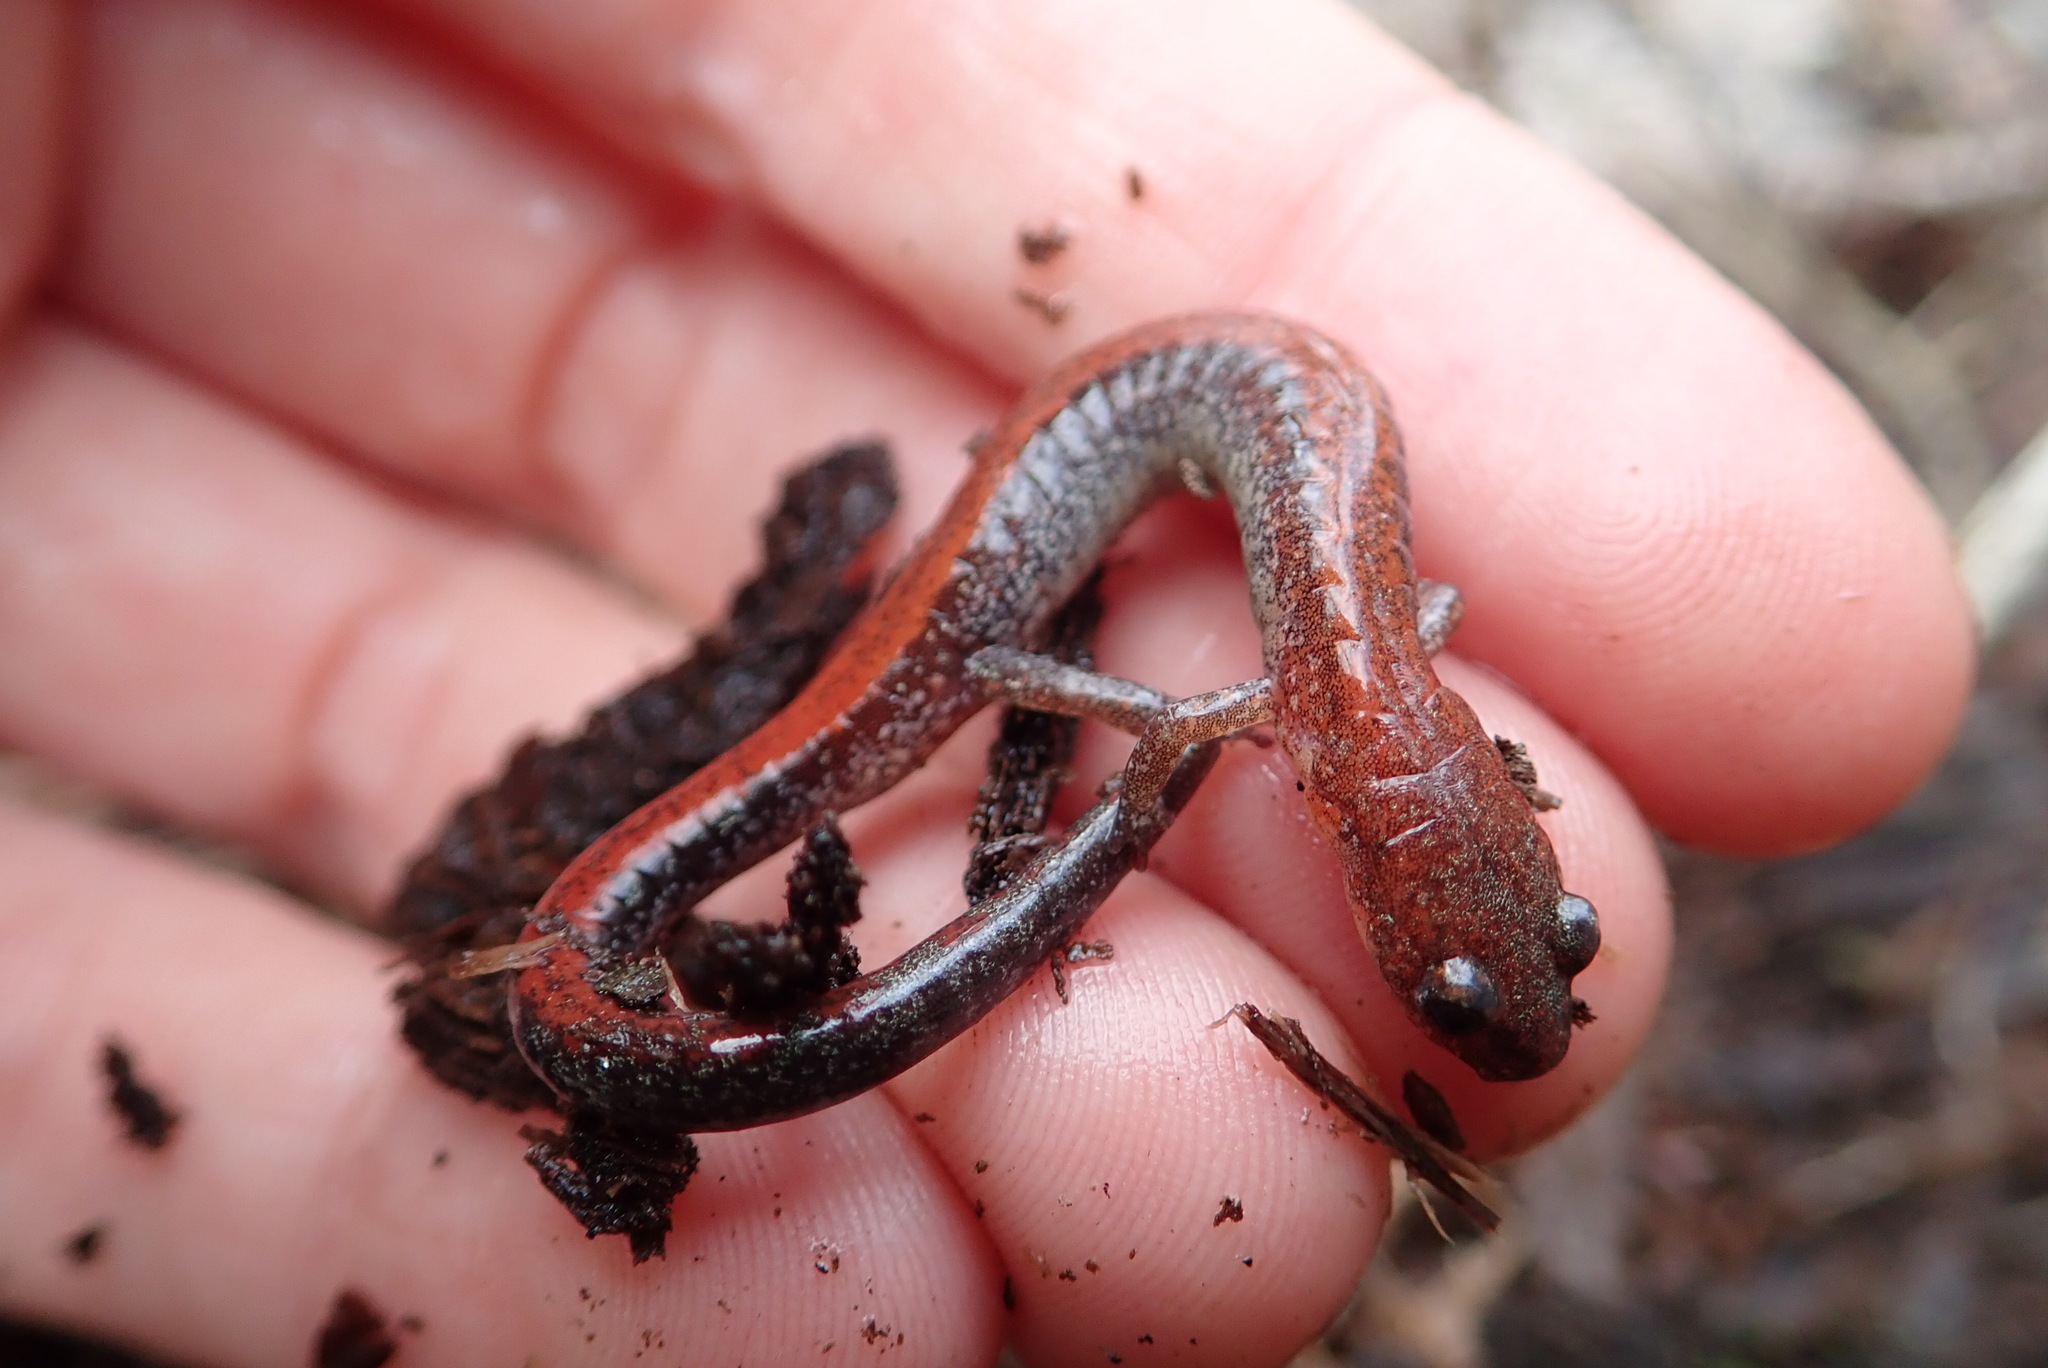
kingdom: Animalia
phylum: Chordata
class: Amphibia
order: Caudata
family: Plethodontidae
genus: Plethodon
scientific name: Plethodon cinereus
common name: Redback salamander
